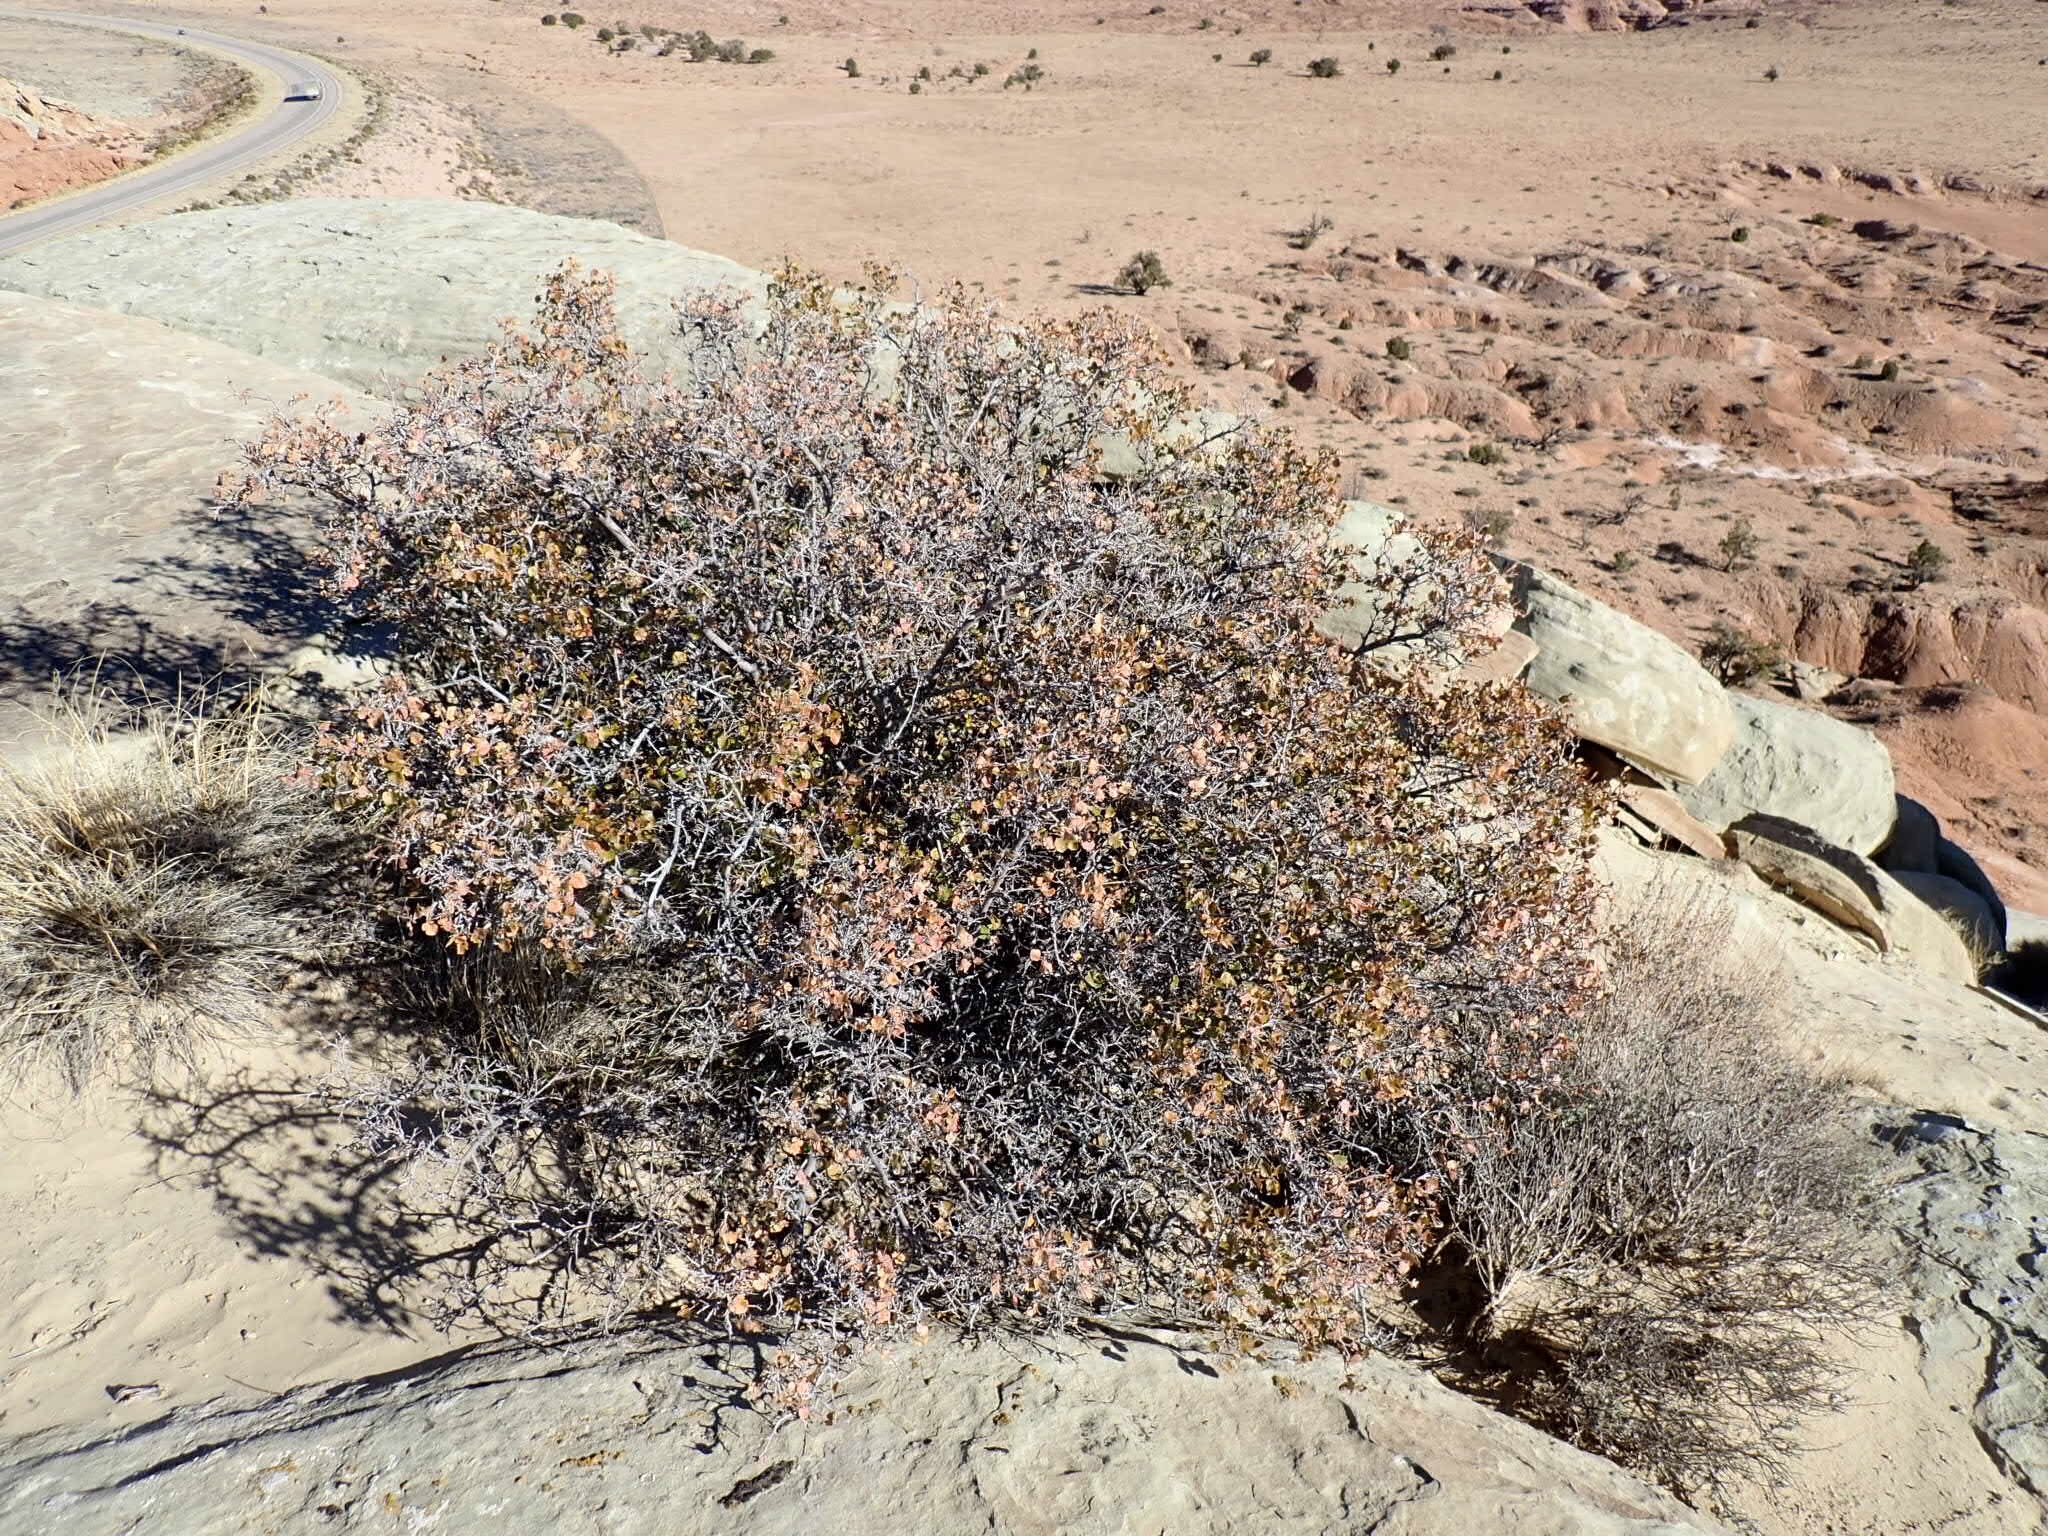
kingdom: Plantae
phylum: Tracheophyta
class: Magnoliopsida
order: Sapindales
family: Anacardiaceae
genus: Rhus
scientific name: Rhus trilobata
